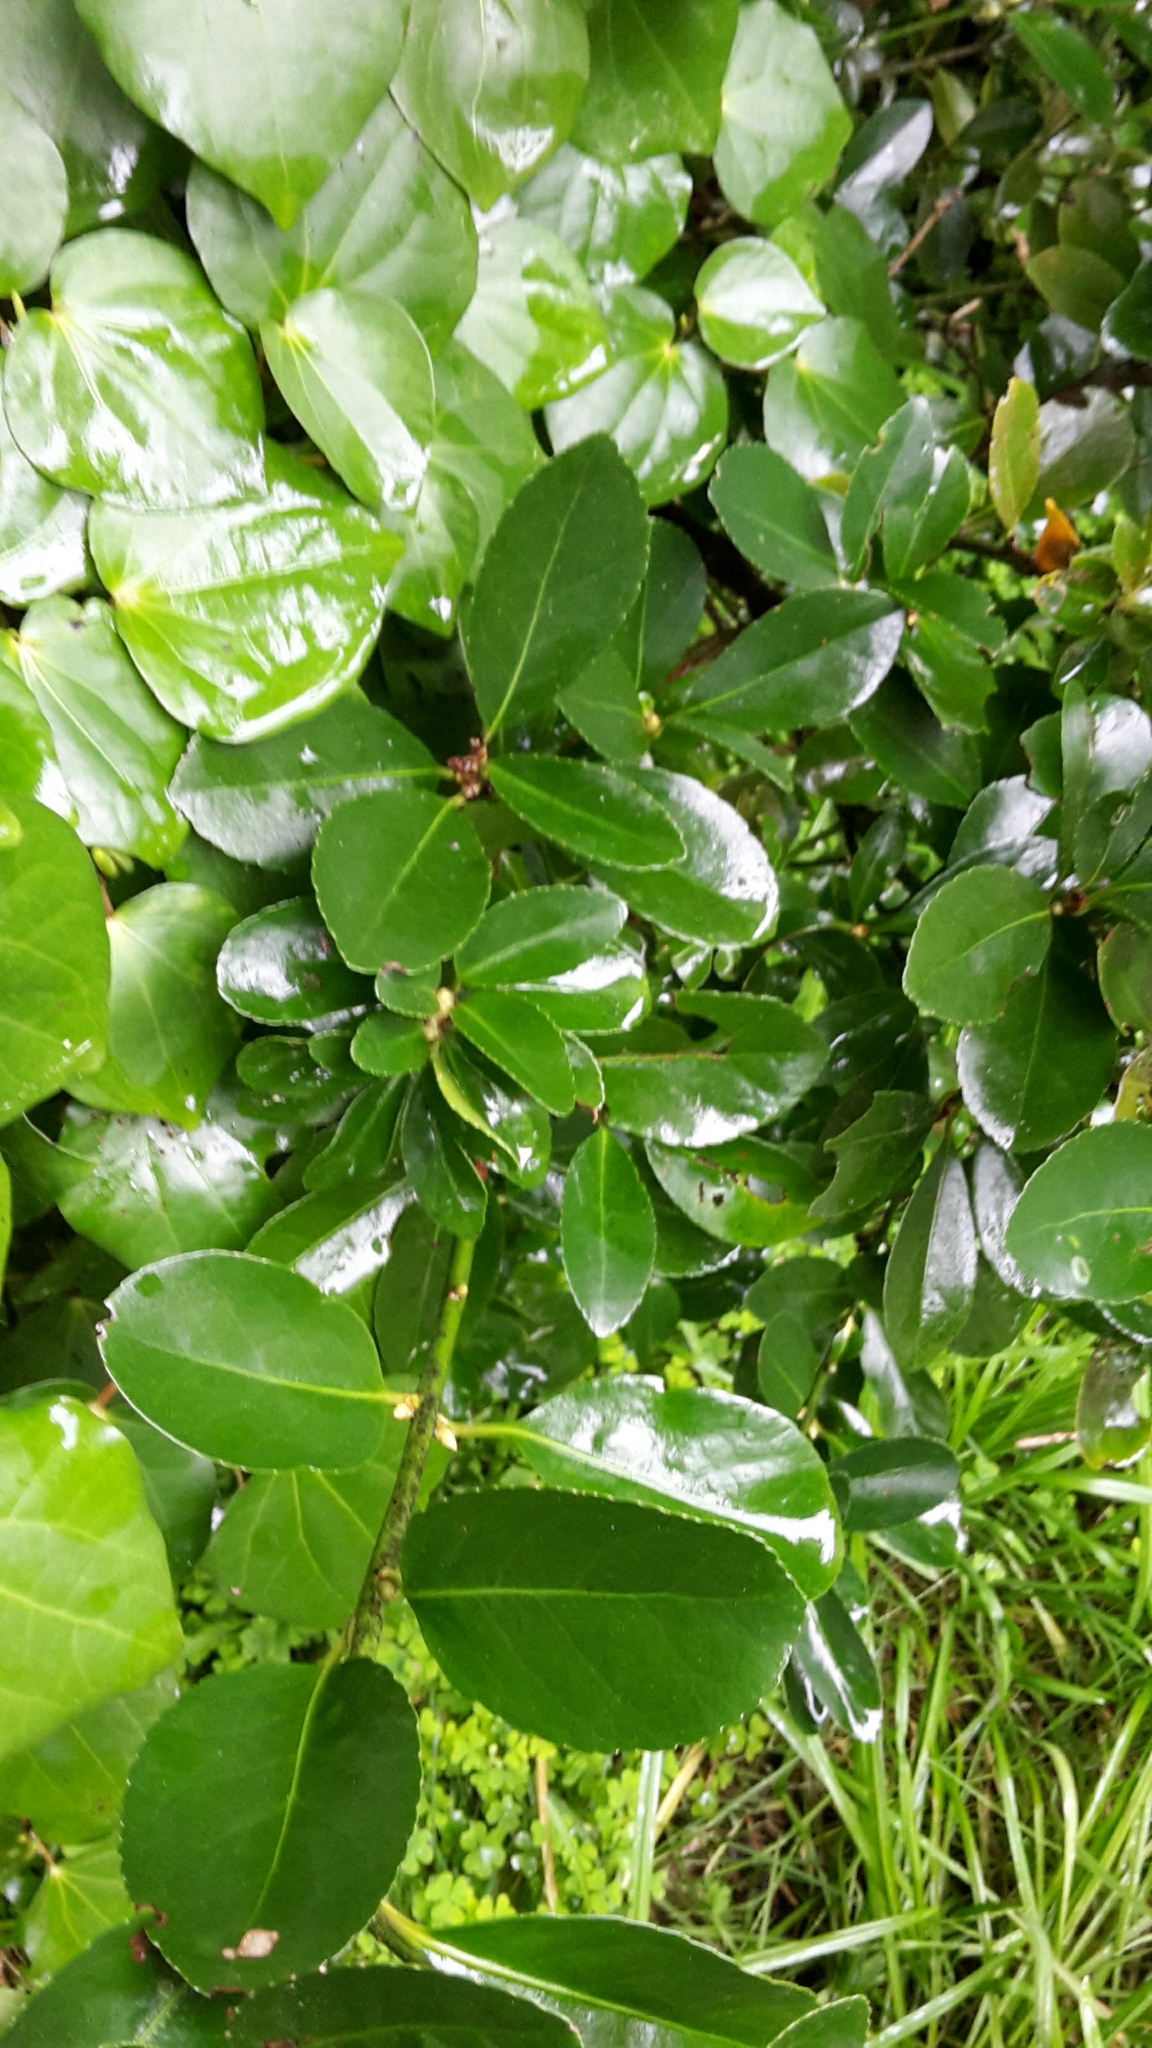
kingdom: Plantae
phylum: Tracheophyta
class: Magnoliopsida
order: Celastrales
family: Celastraceae
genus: Euonymus
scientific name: Euonymus japonicus
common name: Japanese spindletree
